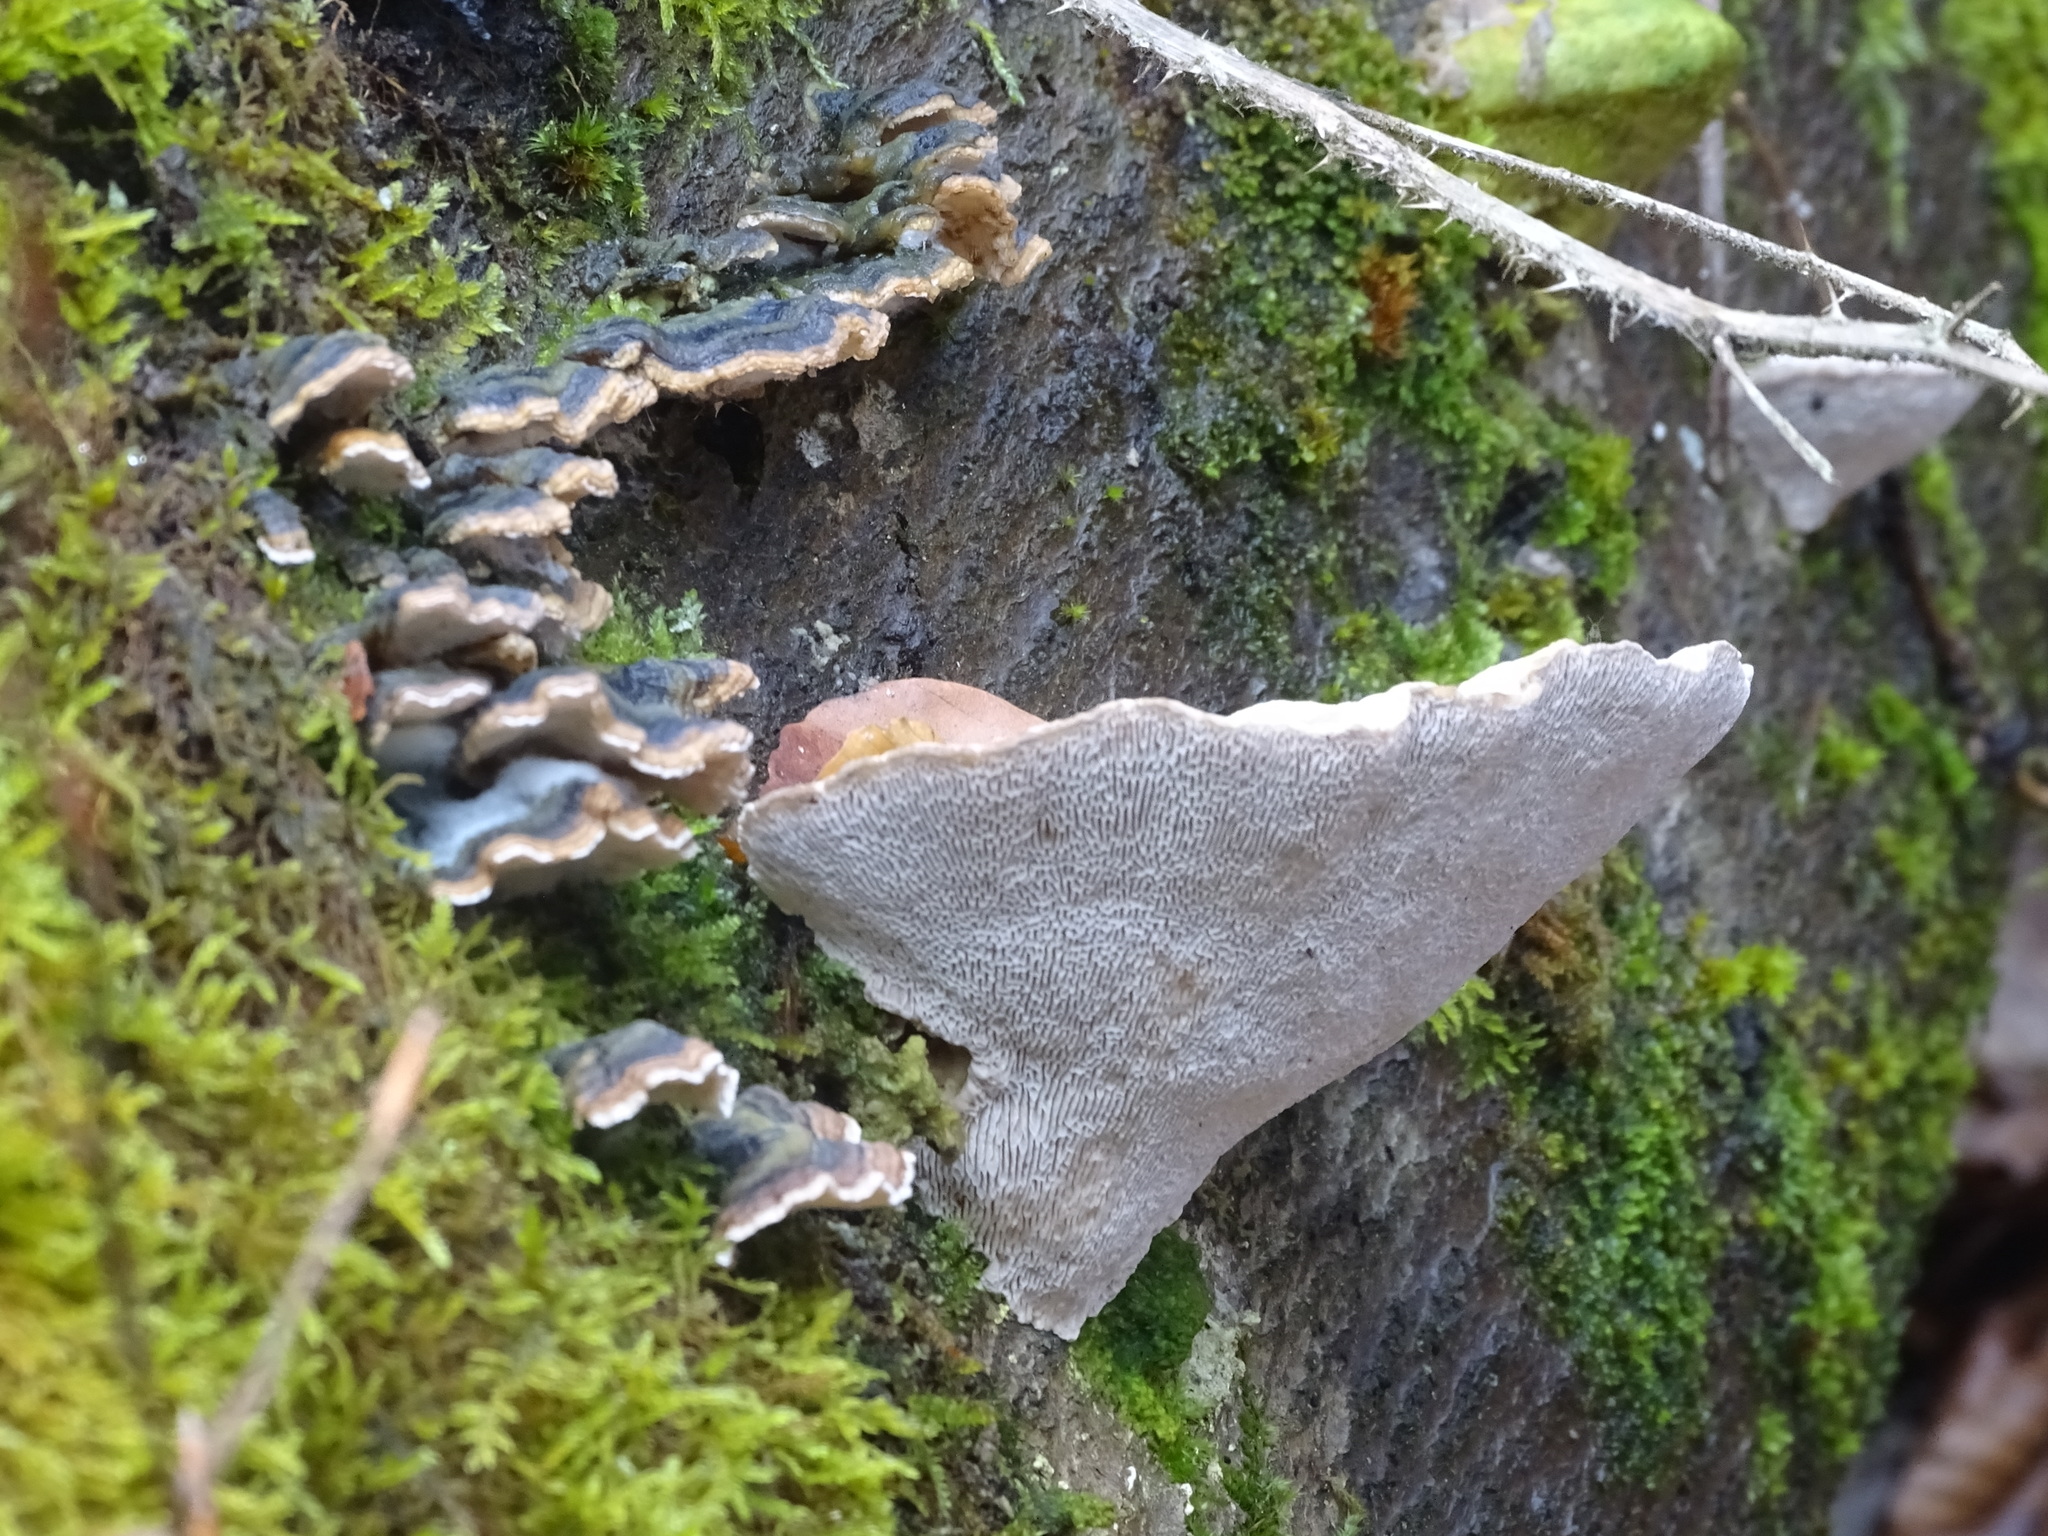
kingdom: Fungi
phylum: Basidiomycota
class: Agaricomycetes
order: Polyporales
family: Polyporaceae
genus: Trametes
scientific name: Trametes gibbosa
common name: Lumpy bracket
